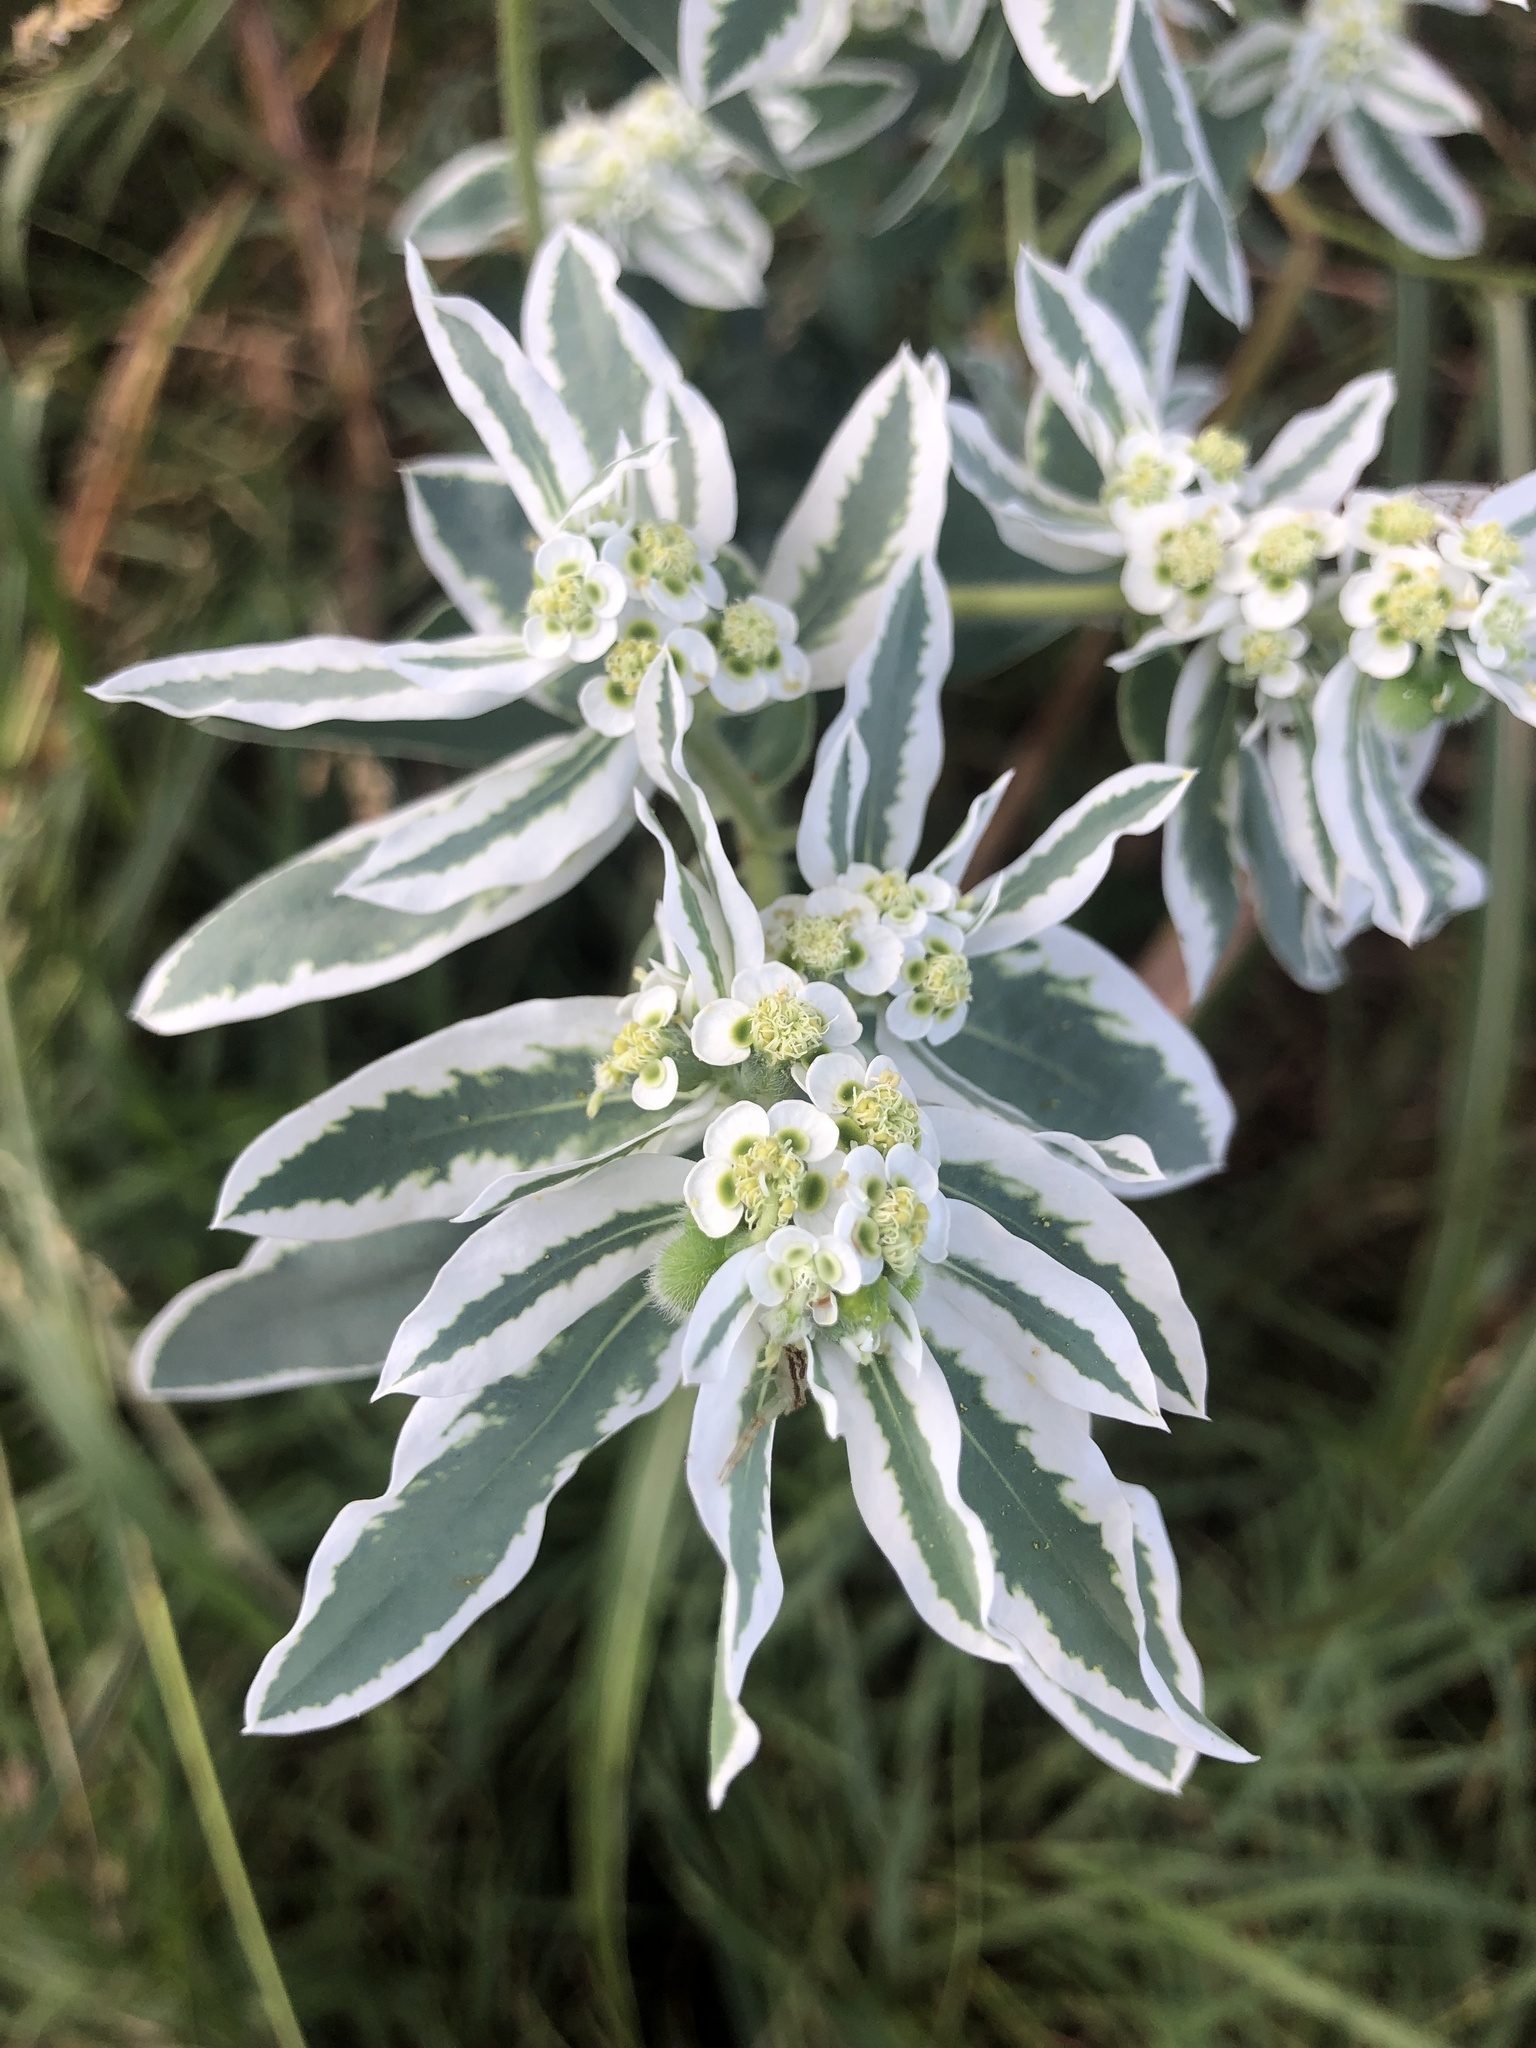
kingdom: Plantae
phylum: Tracheophyta
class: Magnoliopsida
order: Malpighiales
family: Euphorbiaceae
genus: Euphorbia
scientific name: Euphorbia marginata
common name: Ghostweed
